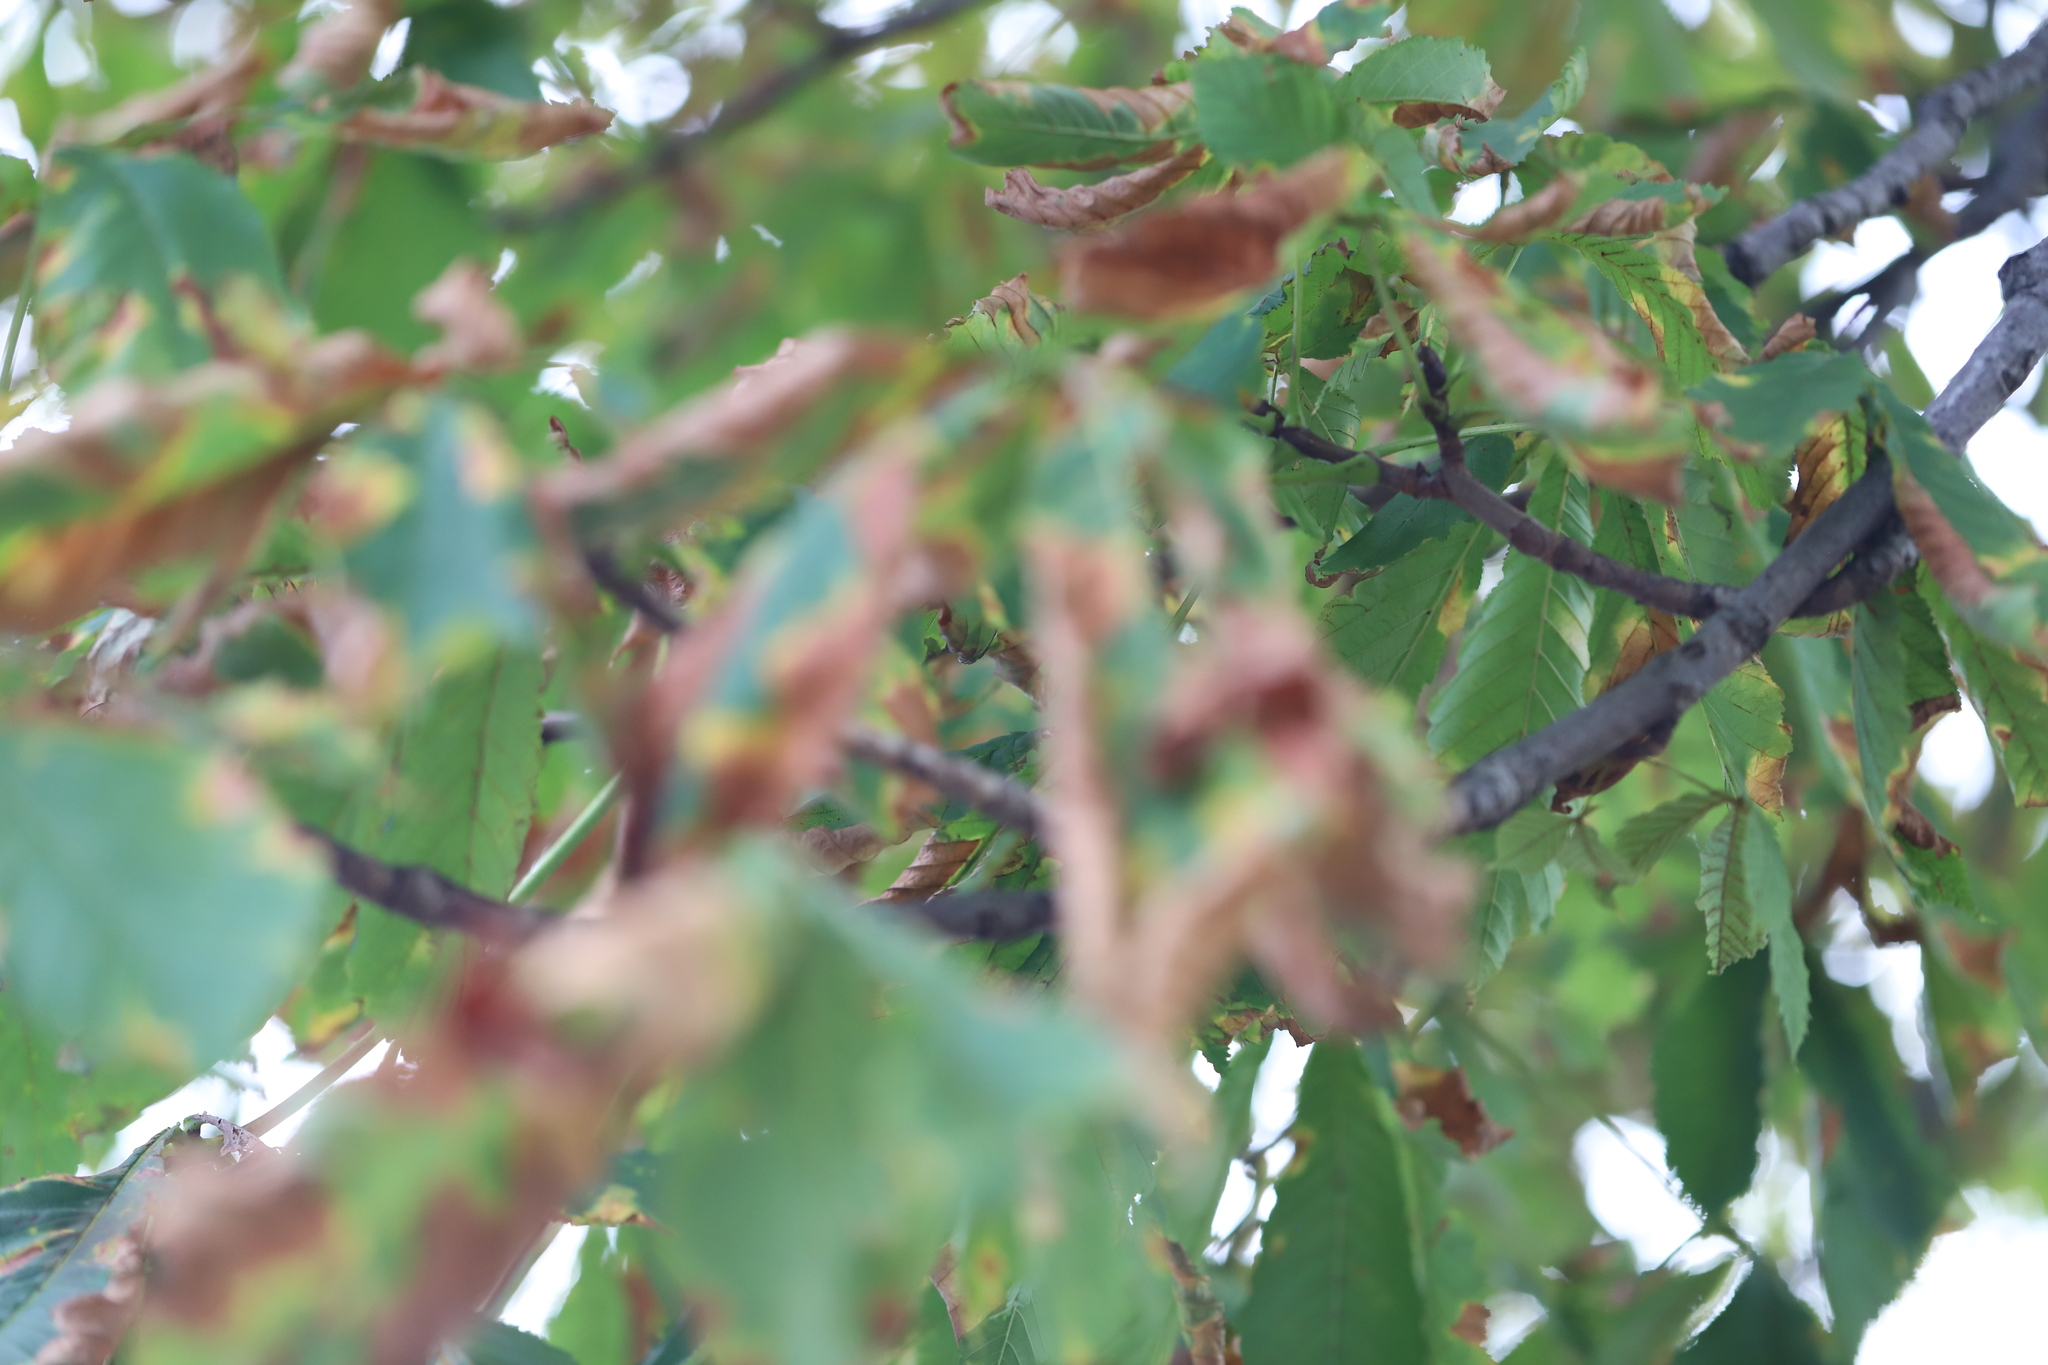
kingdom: Fungi
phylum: Ascomycota
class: Dothideomycetes
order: Botryosphaeriales
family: Phyllostictaceae
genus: Phyllosticta
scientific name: Phyllosticta paviae
